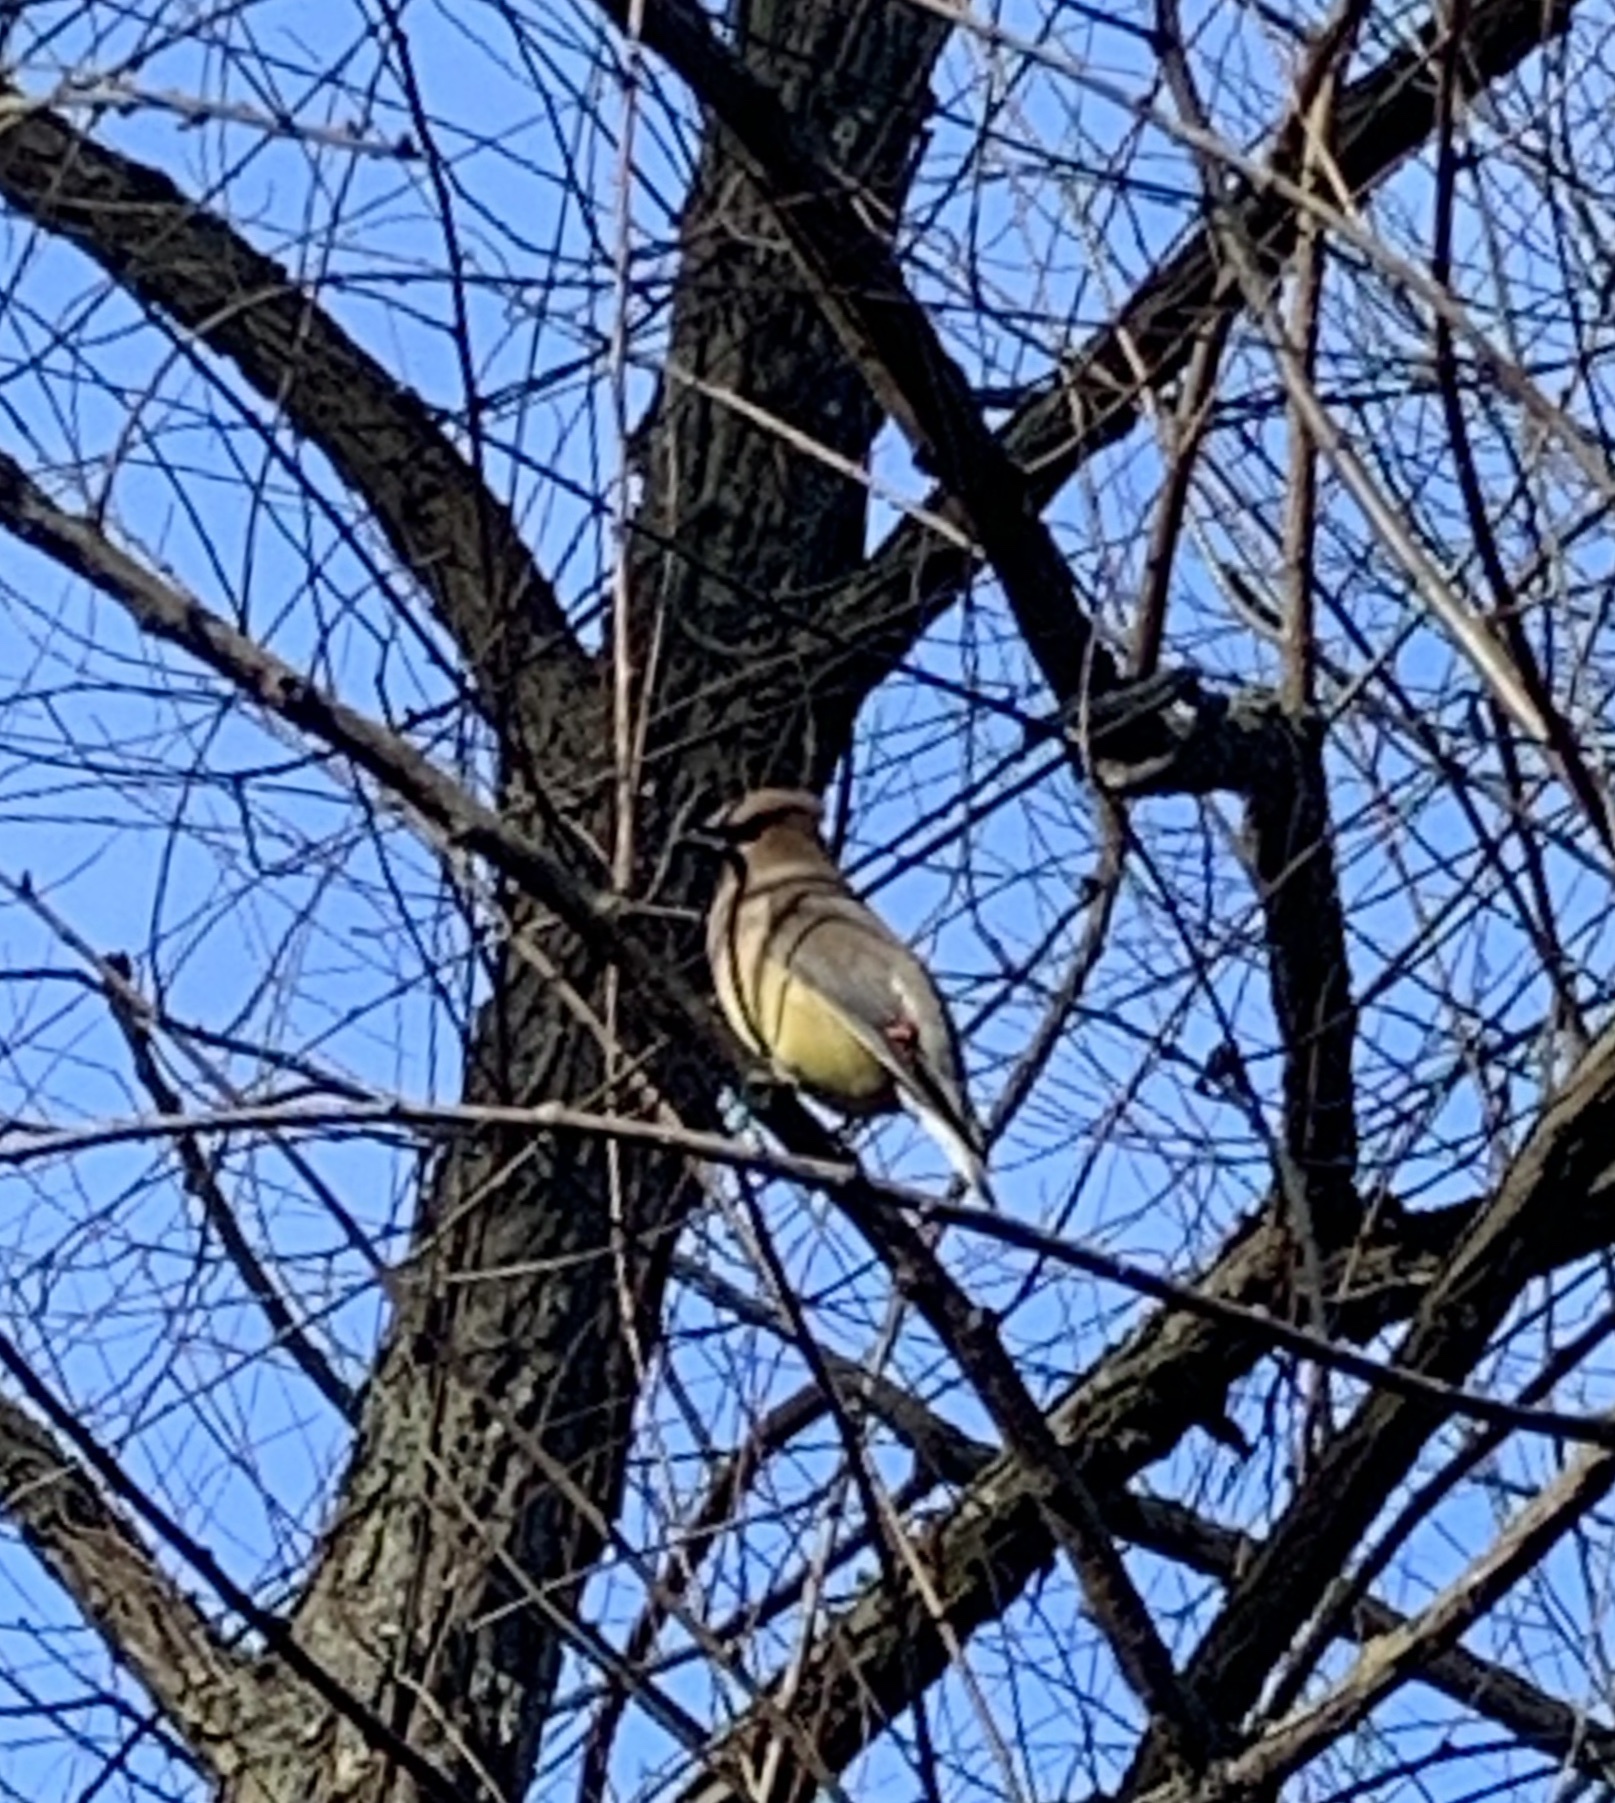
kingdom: Animalia
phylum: Chordata
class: Aves
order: Passeriformes
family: Bombycillidae
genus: Bombycilla
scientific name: Bombycilla cedrorum
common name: Cedar waxwing
